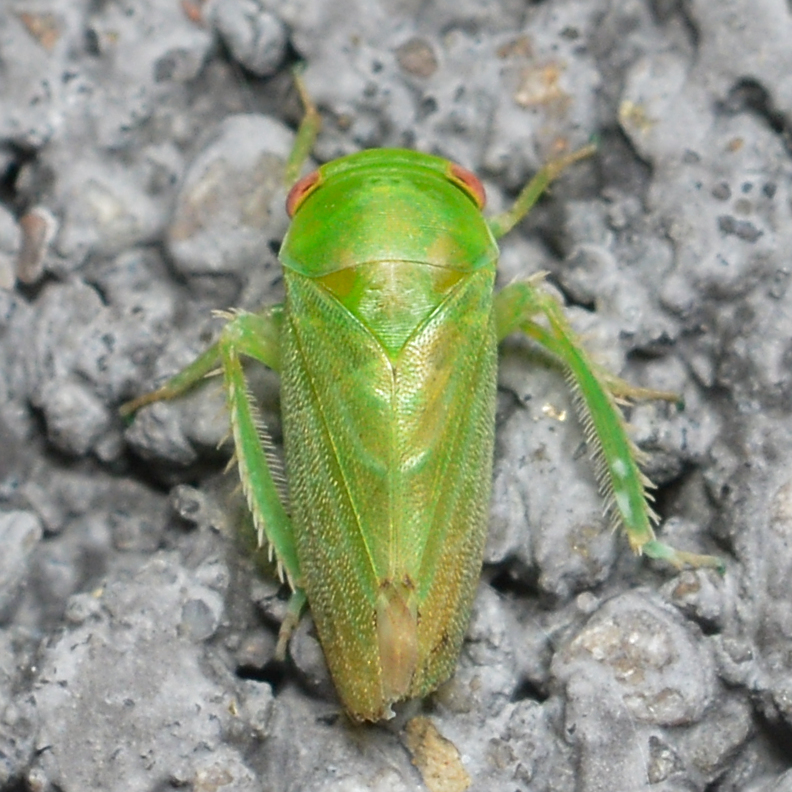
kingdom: Animalia
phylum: Arthropoda
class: Insecta
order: Hemiptera
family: Cicadellidae
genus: Stragania
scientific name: Stragania alabamensis
